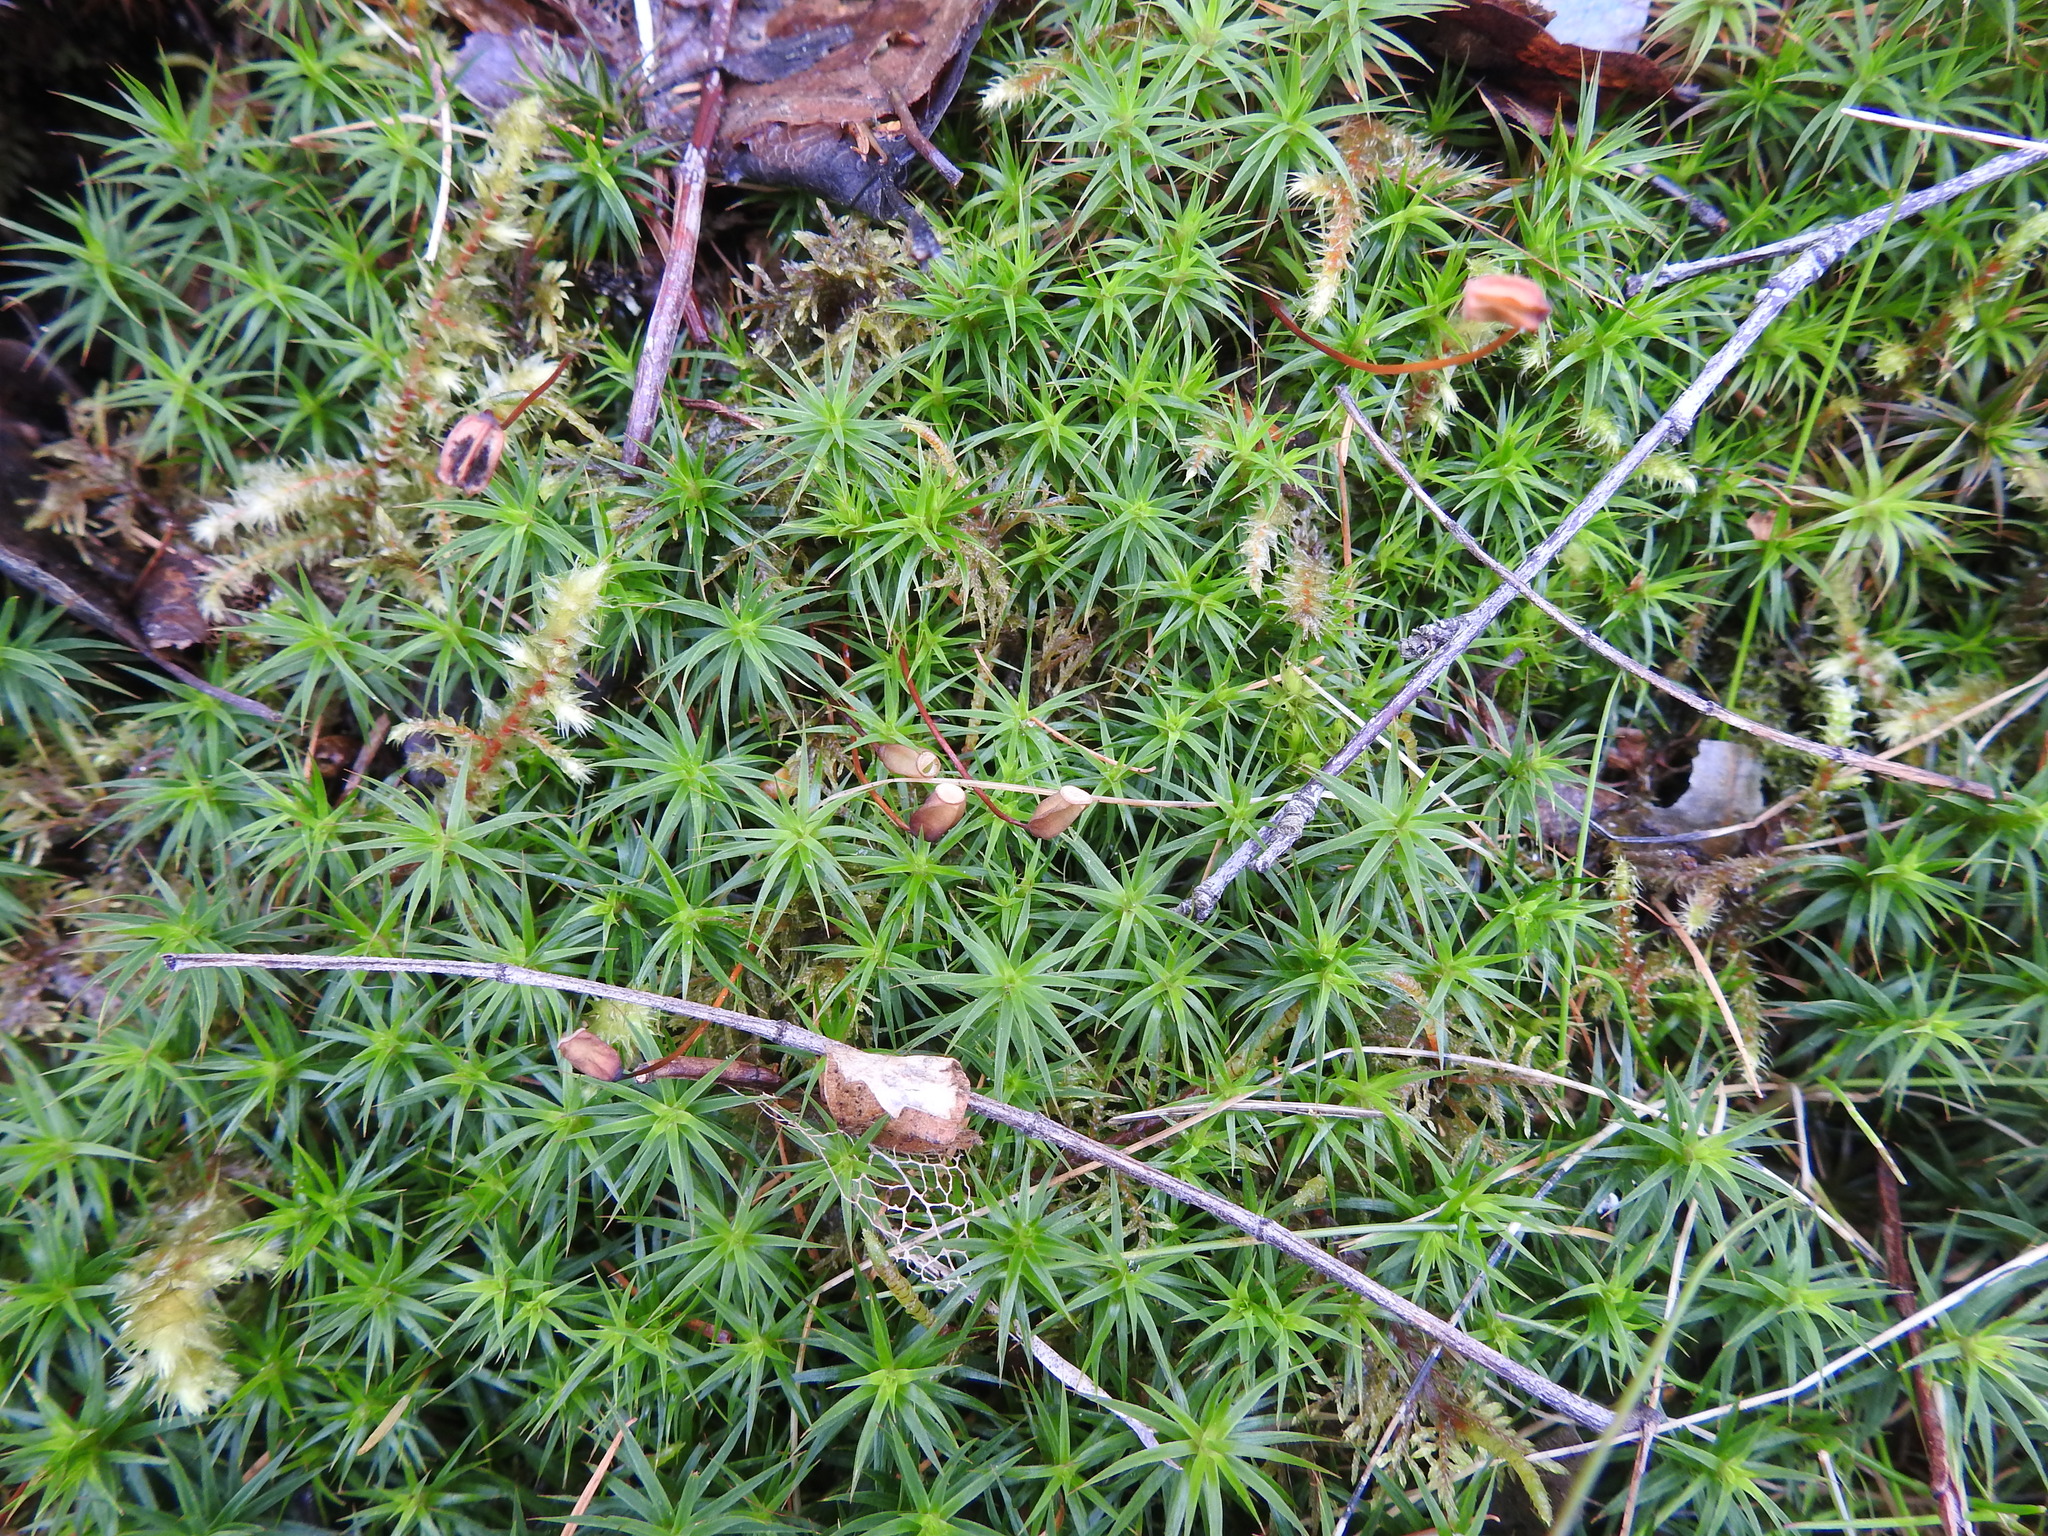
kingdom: Plantae
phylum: Bryophyta
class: Polytrichopsida
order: Polytrichales
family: Polytrichaceae
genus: Polytrichum
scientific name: Polytrichum formosum
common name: Bank haircap moss
